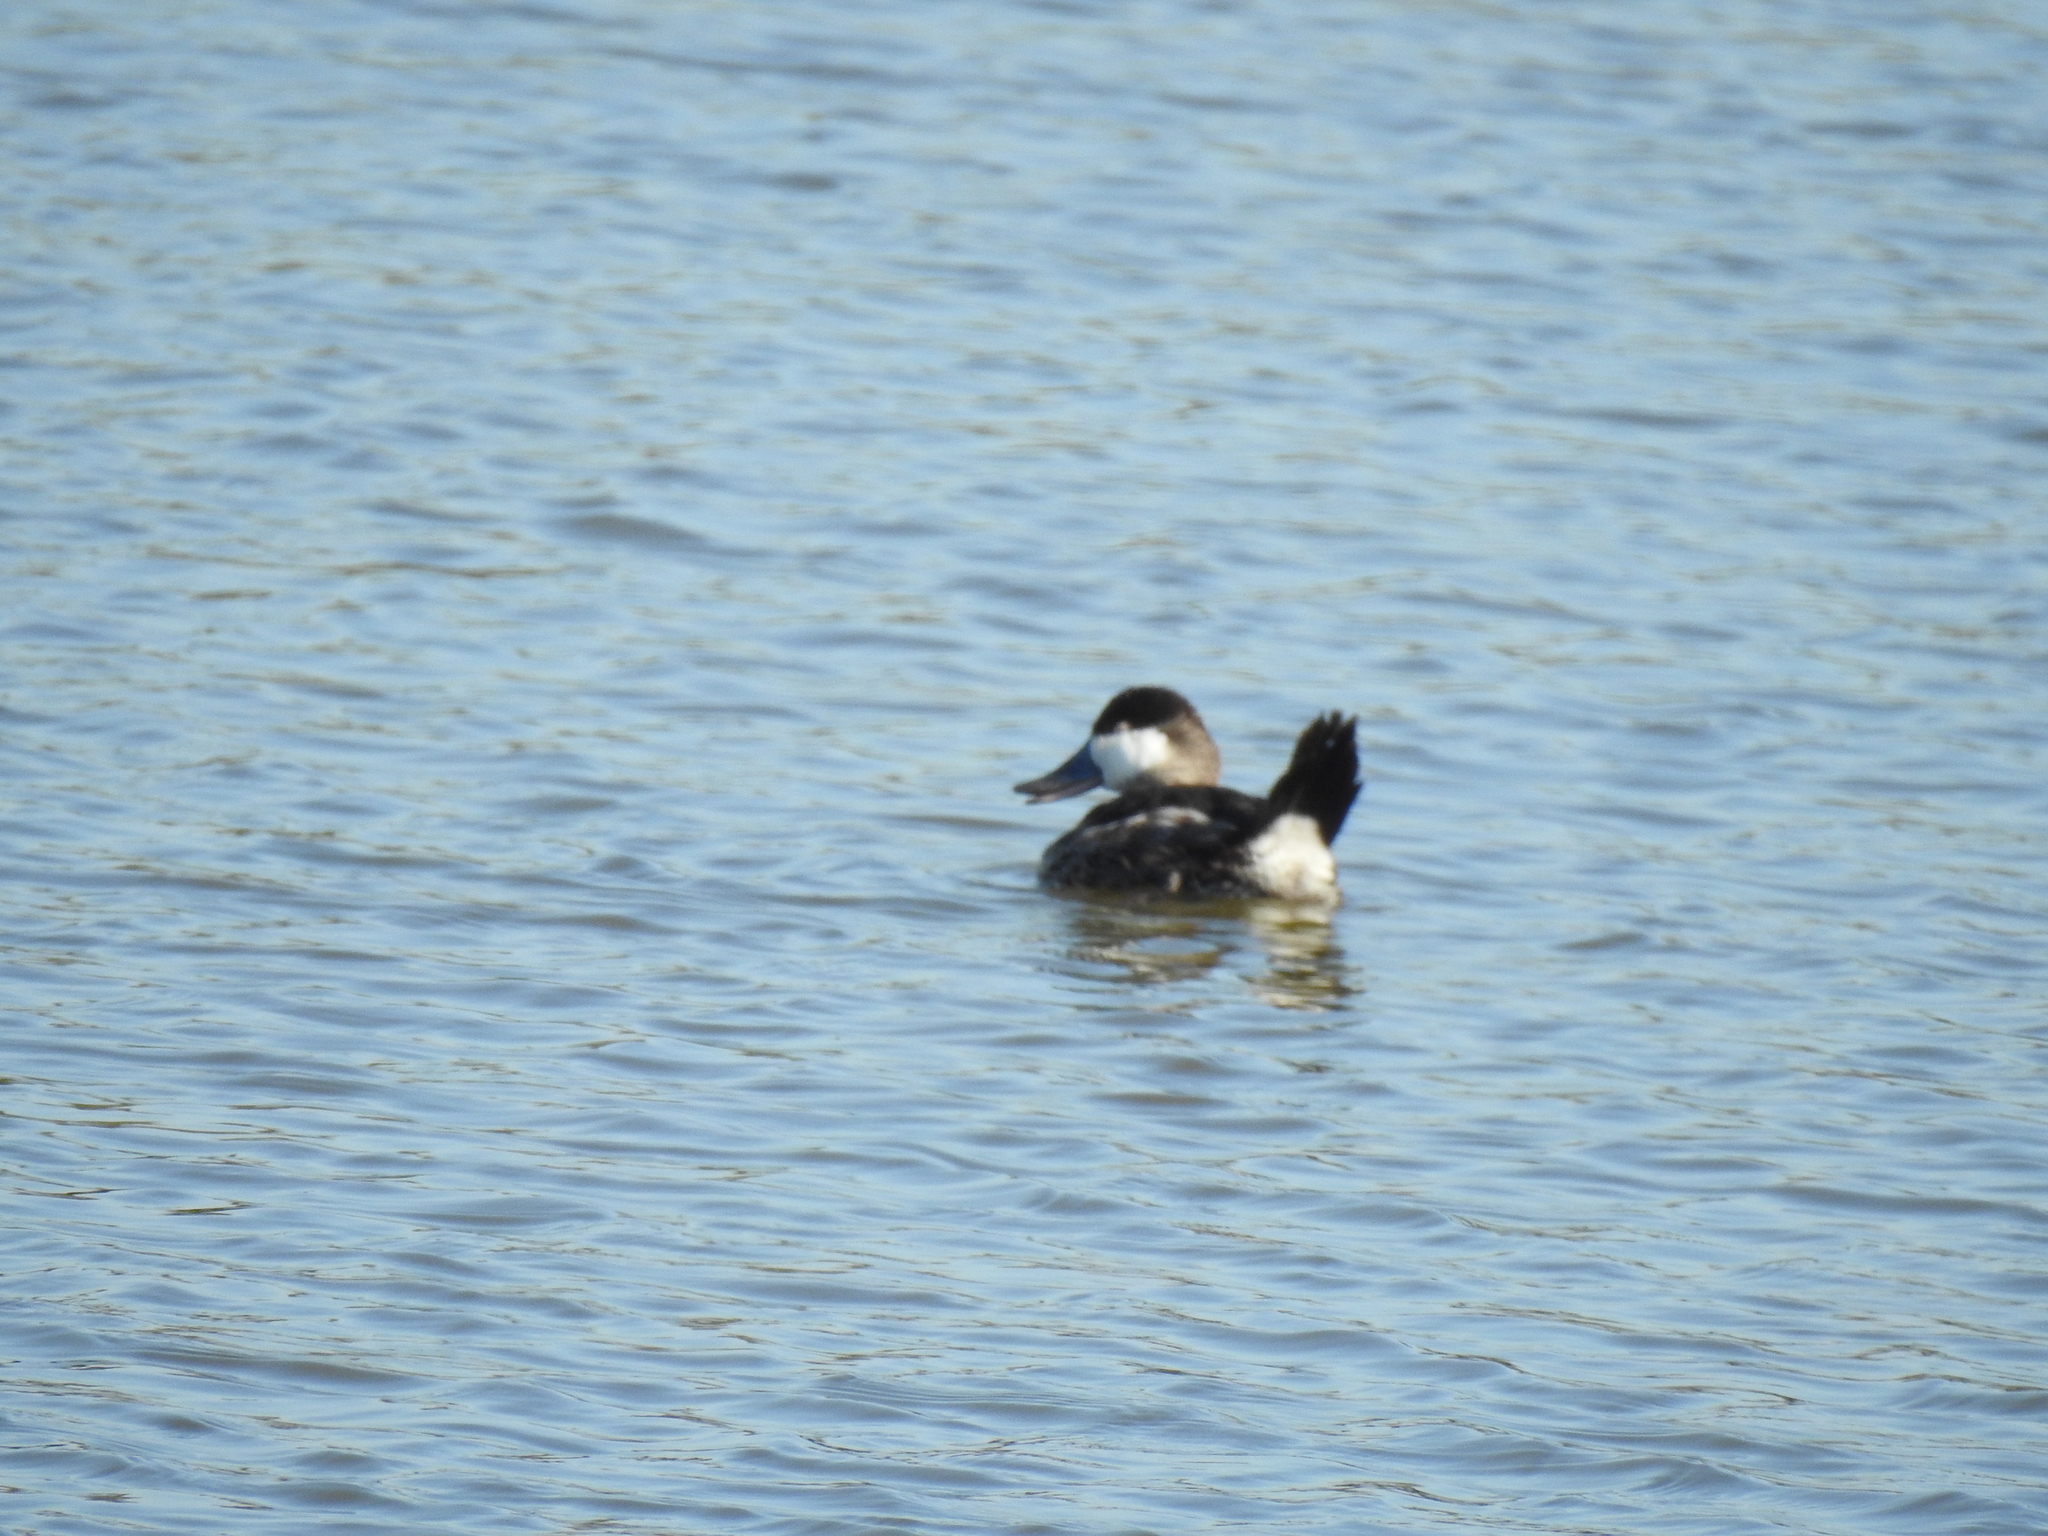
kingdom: Animalia
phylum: Chordata
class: Aves
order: Anseriformes
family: Anatidae
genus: Oxyura
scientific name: Oxyura jamaicensis
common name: Ruddy duck
